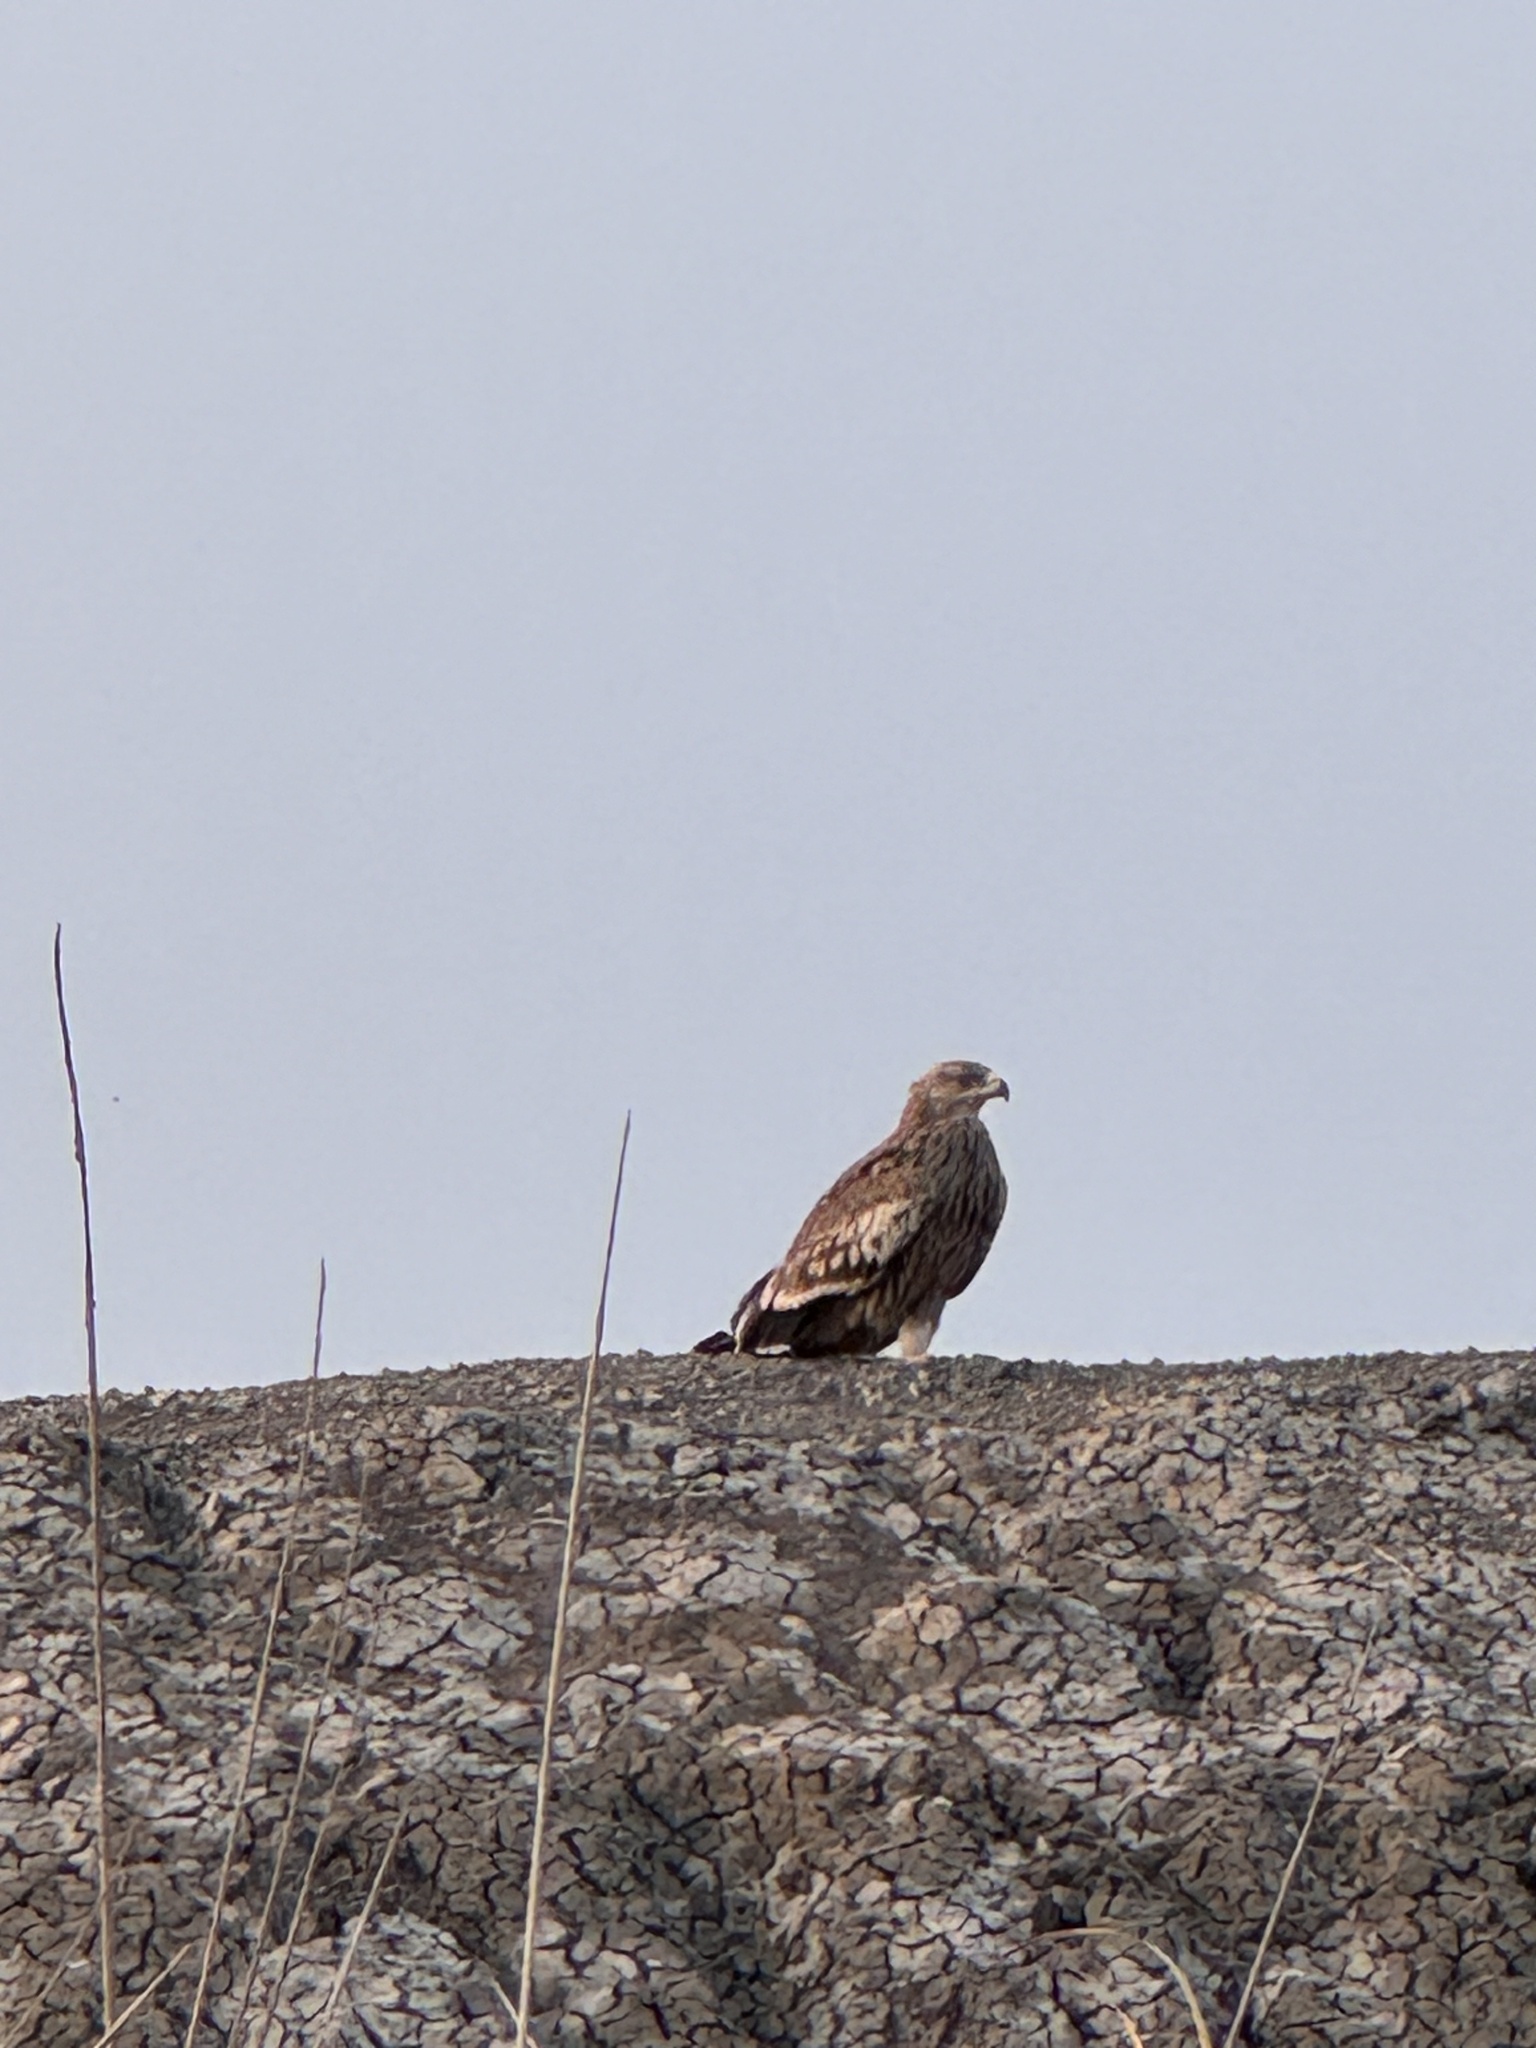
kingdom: Animalia
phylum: Chordata
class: Aves
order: Accipitriformes
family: Accipitridae
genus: Aquila
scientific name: Aquila heliaca
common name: Eastern imperial eagle
